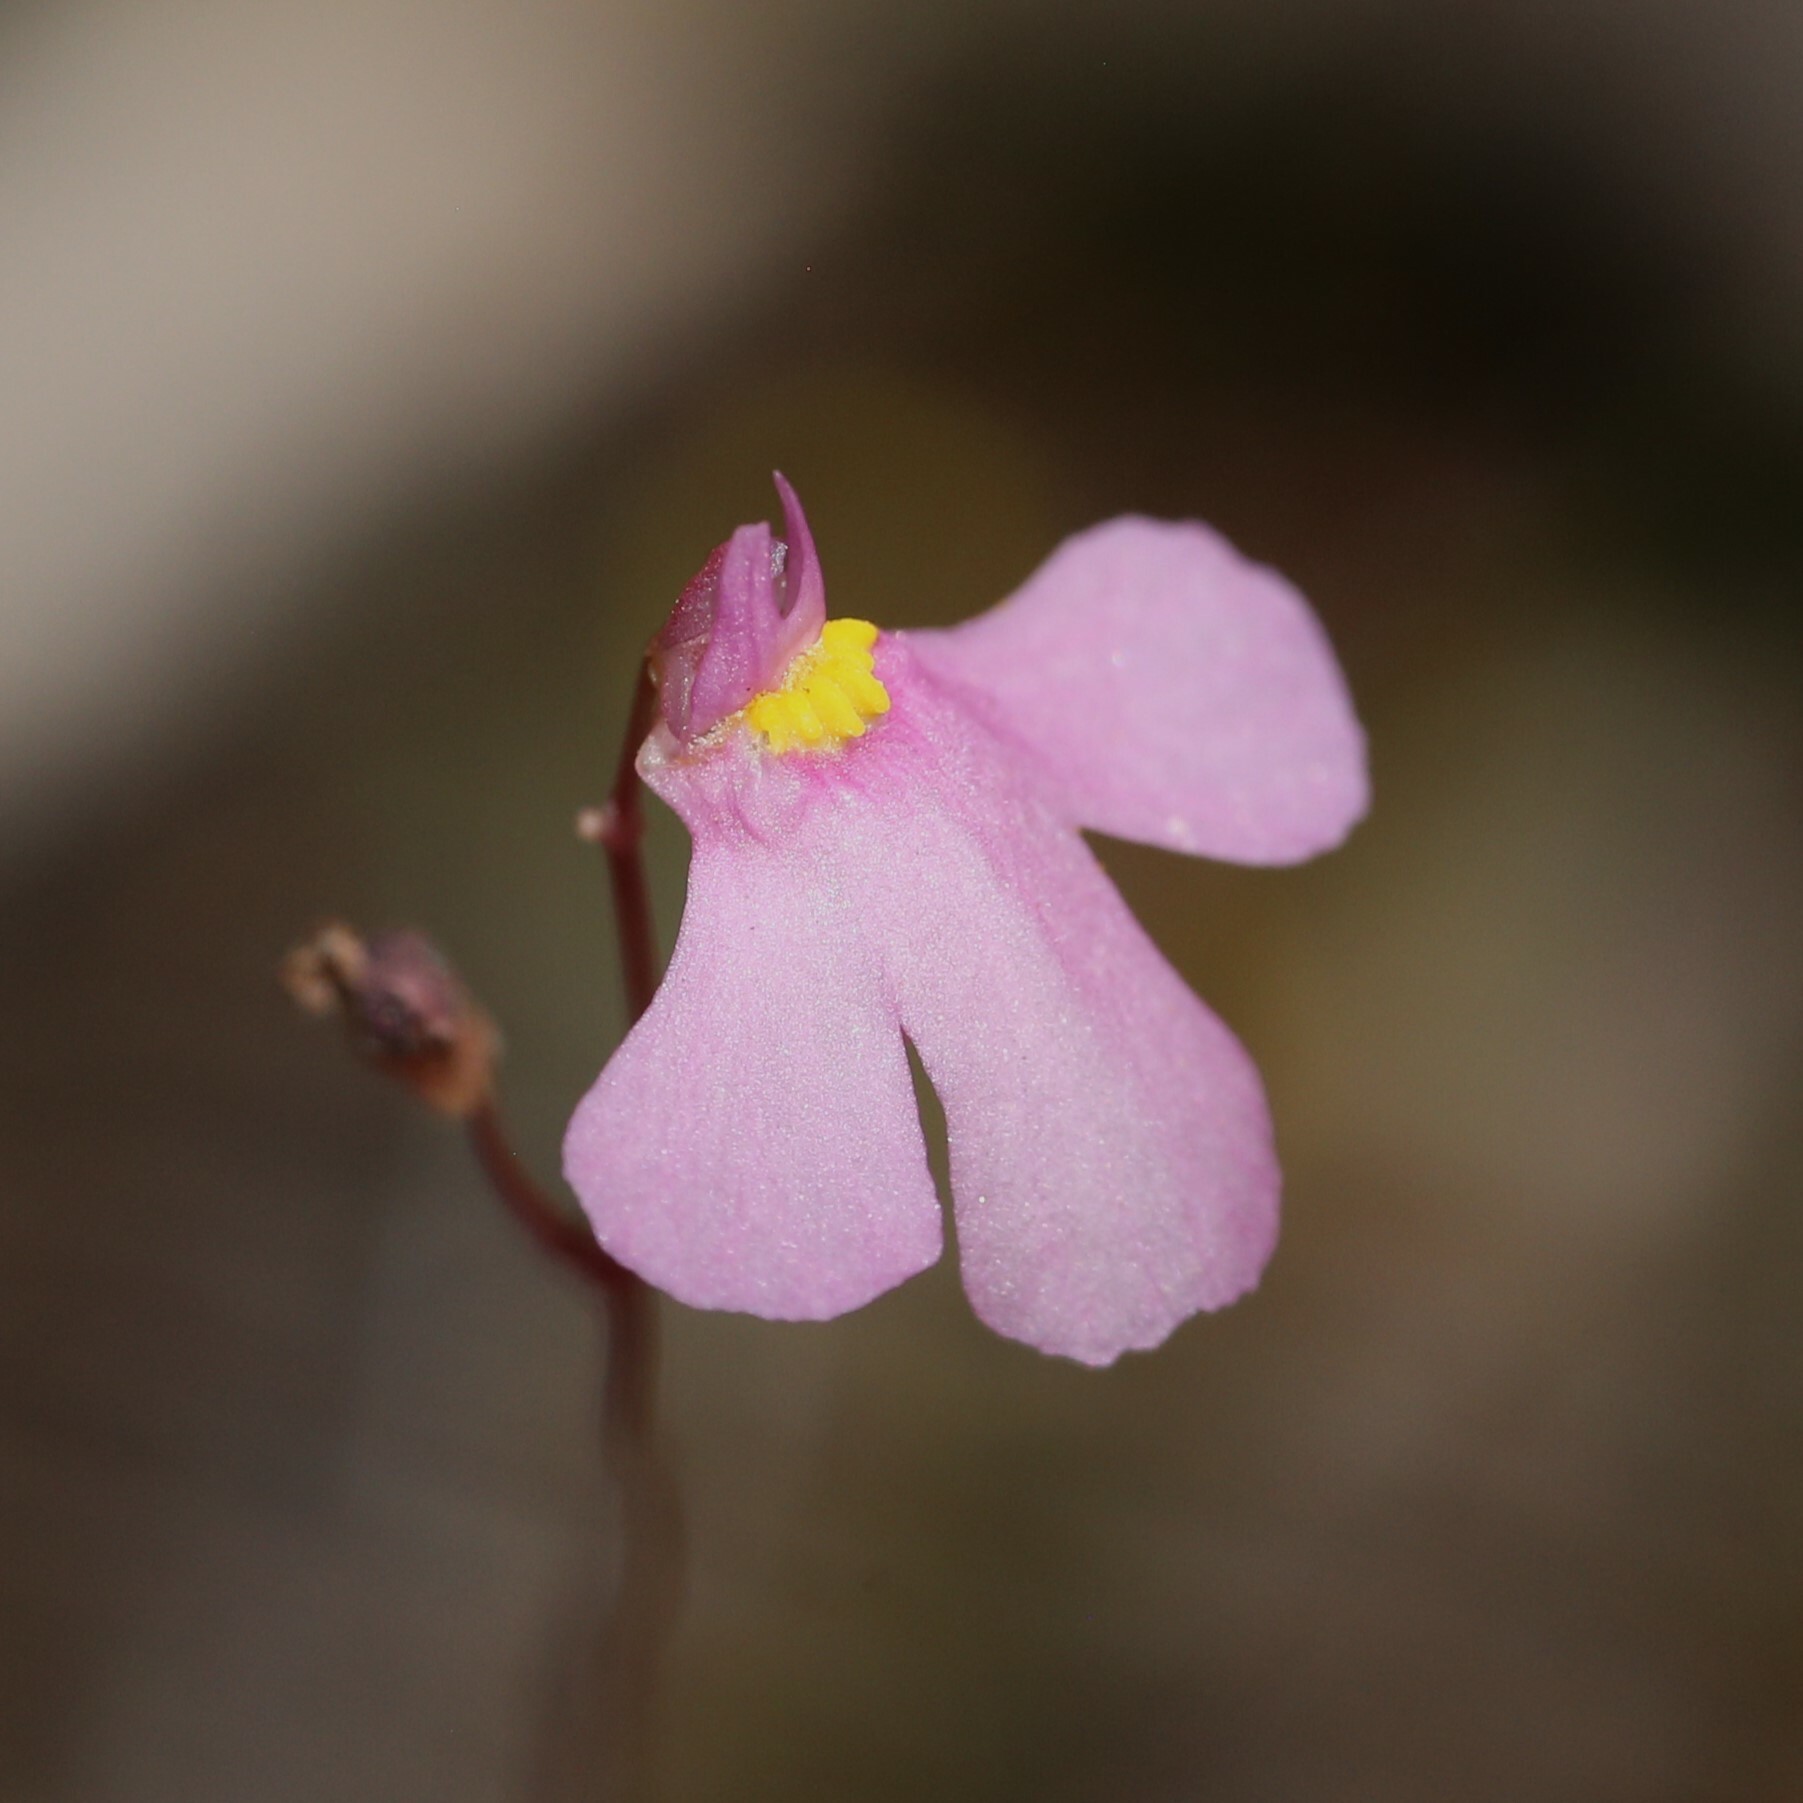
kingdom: Plantae
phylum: Tracheophyta
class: Magnoliopsida
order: Lamiales
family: Lentibulariaceae
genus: Utricularia
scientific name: Utricularia multifida
